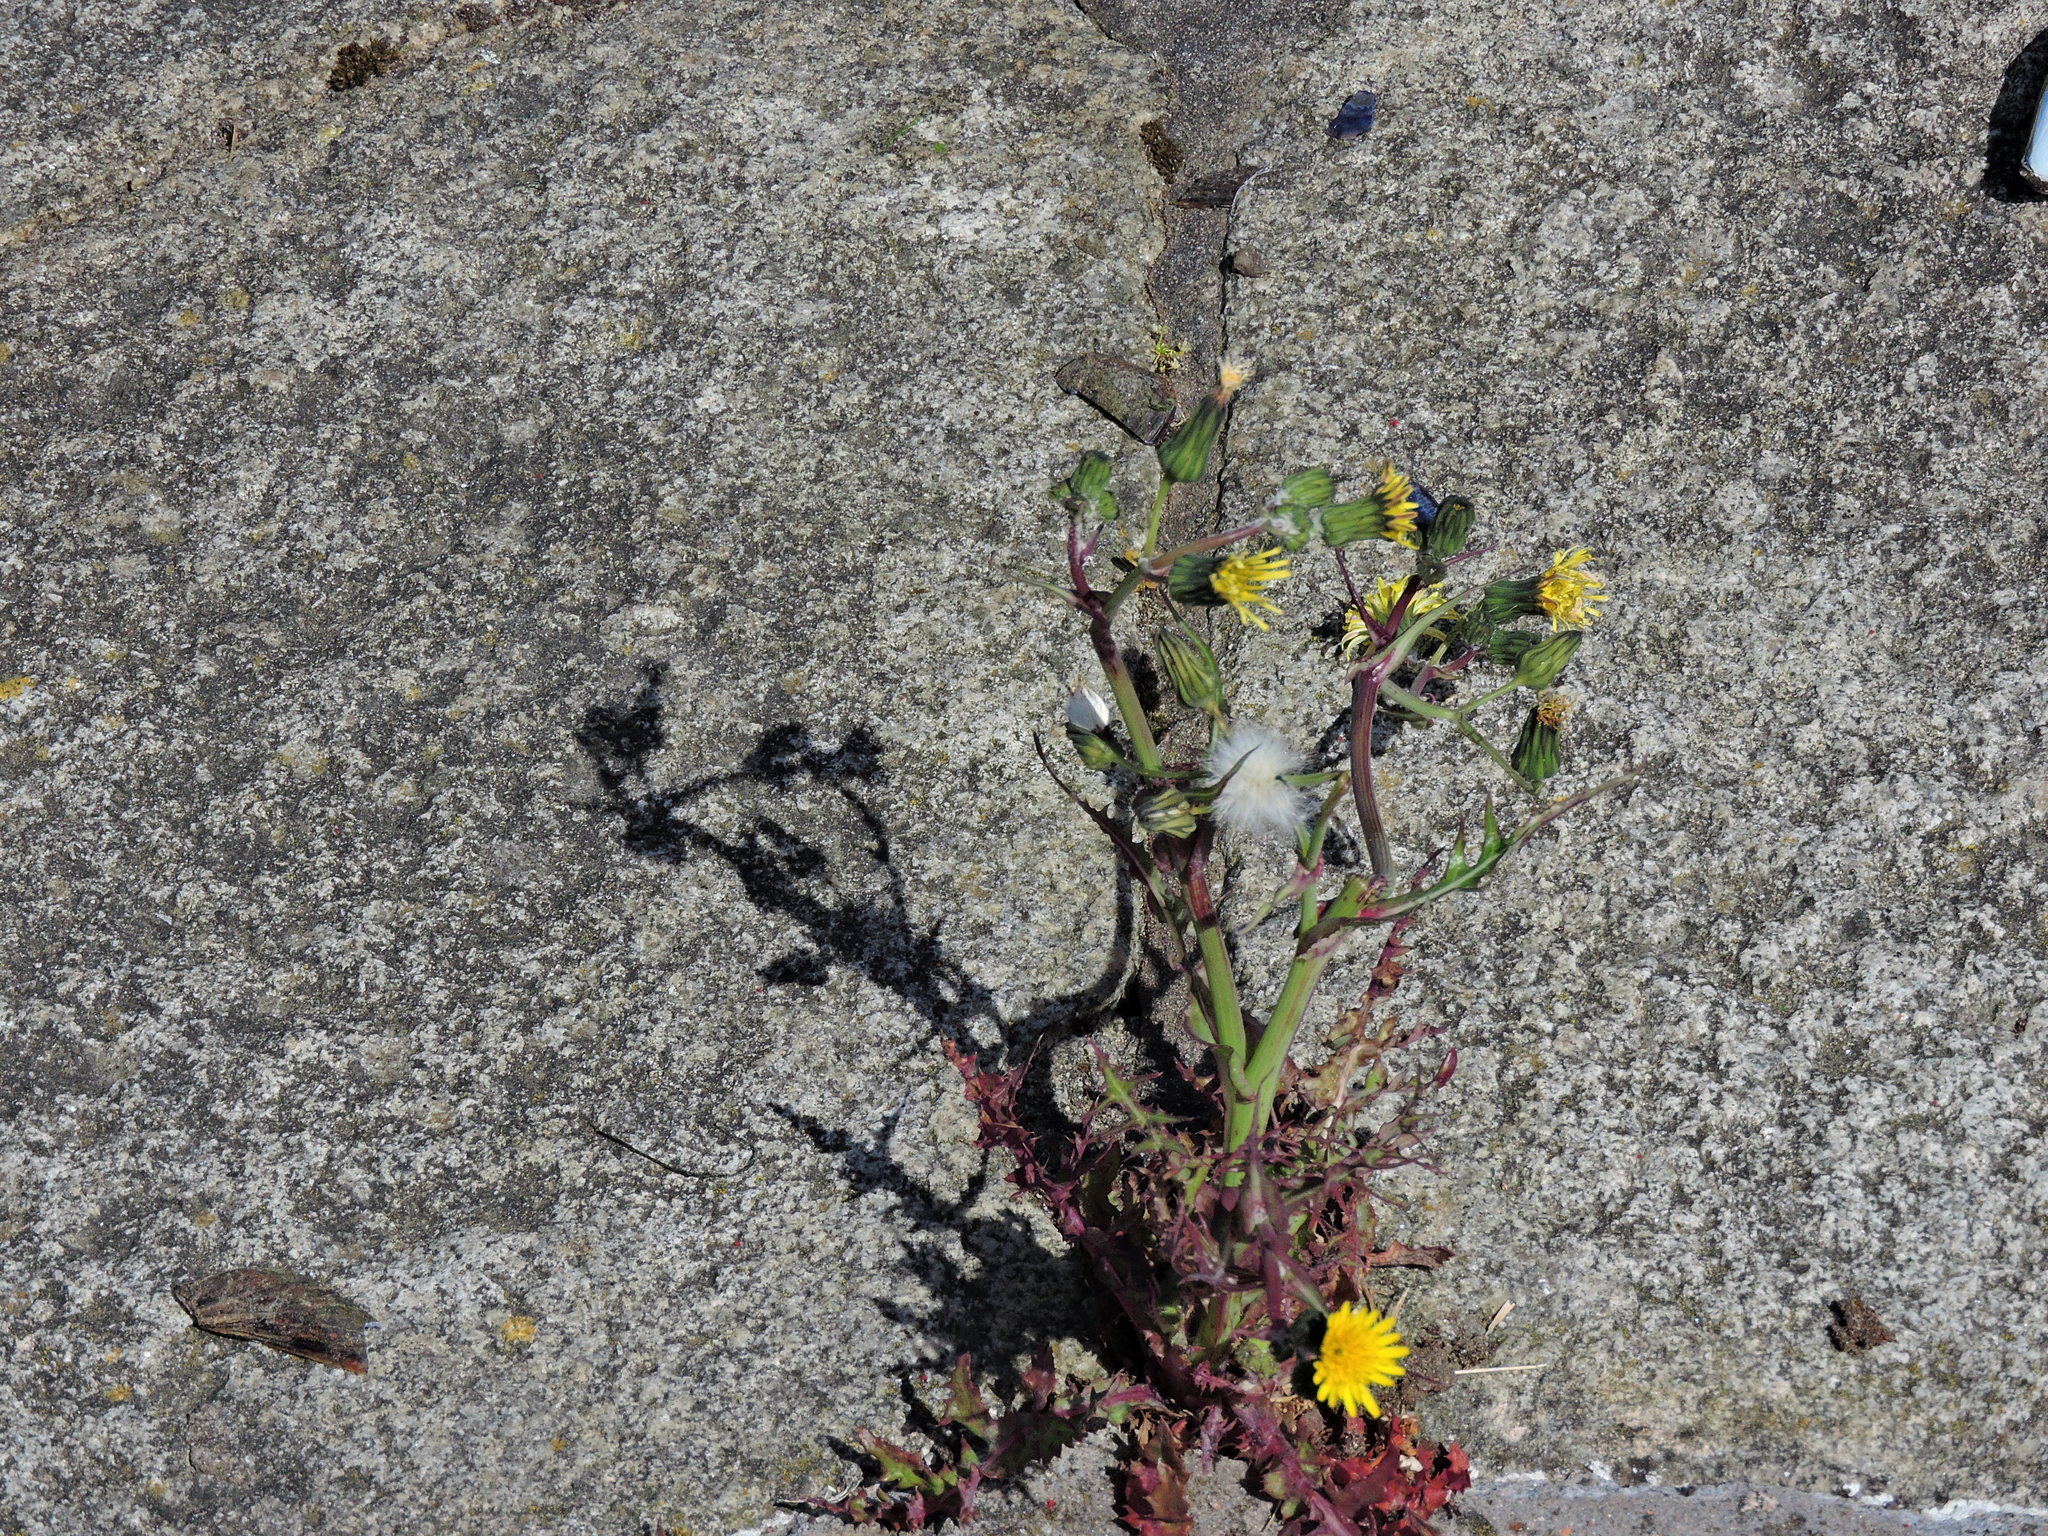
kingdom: Plantae
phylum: Tracheophyta
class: Magnoliopsida
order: Asterales
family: Asteraceae
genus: Sonchus
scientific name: Sonchus oleraceus
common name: Common sowthistle
